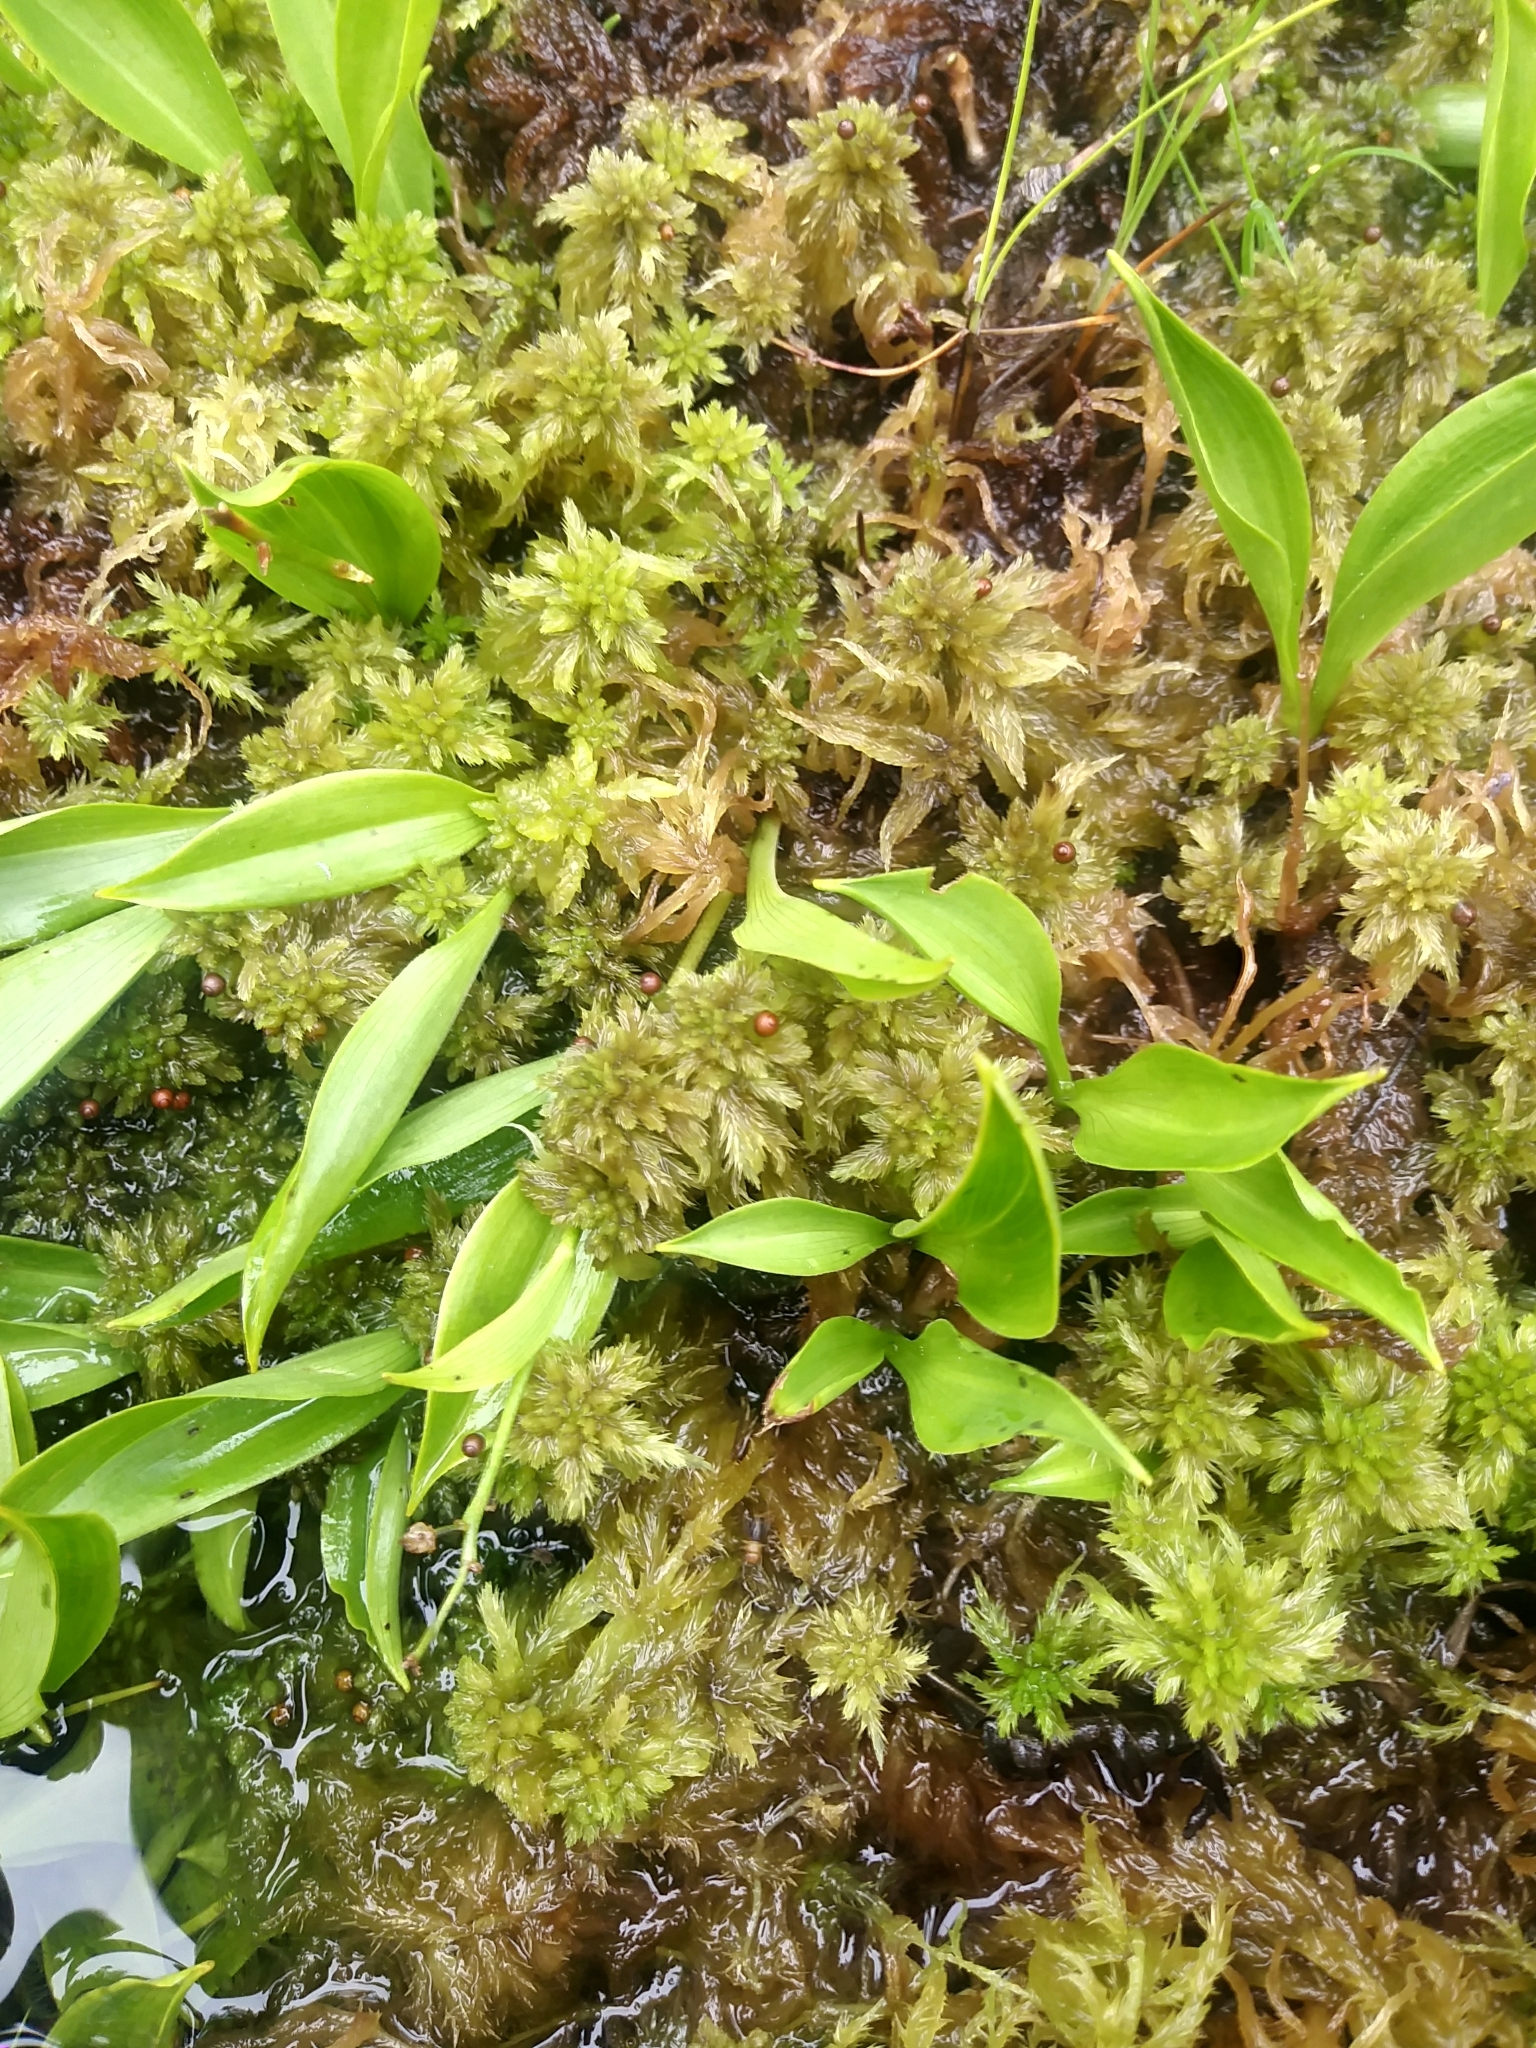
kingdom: Plantae
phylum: Bryophyta
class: Sphagnopsida
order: Sphagnales
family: Sphagnaceae
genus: Sphagnum
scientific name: Sphagnum torreyanum
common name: Torrey's peat moss
